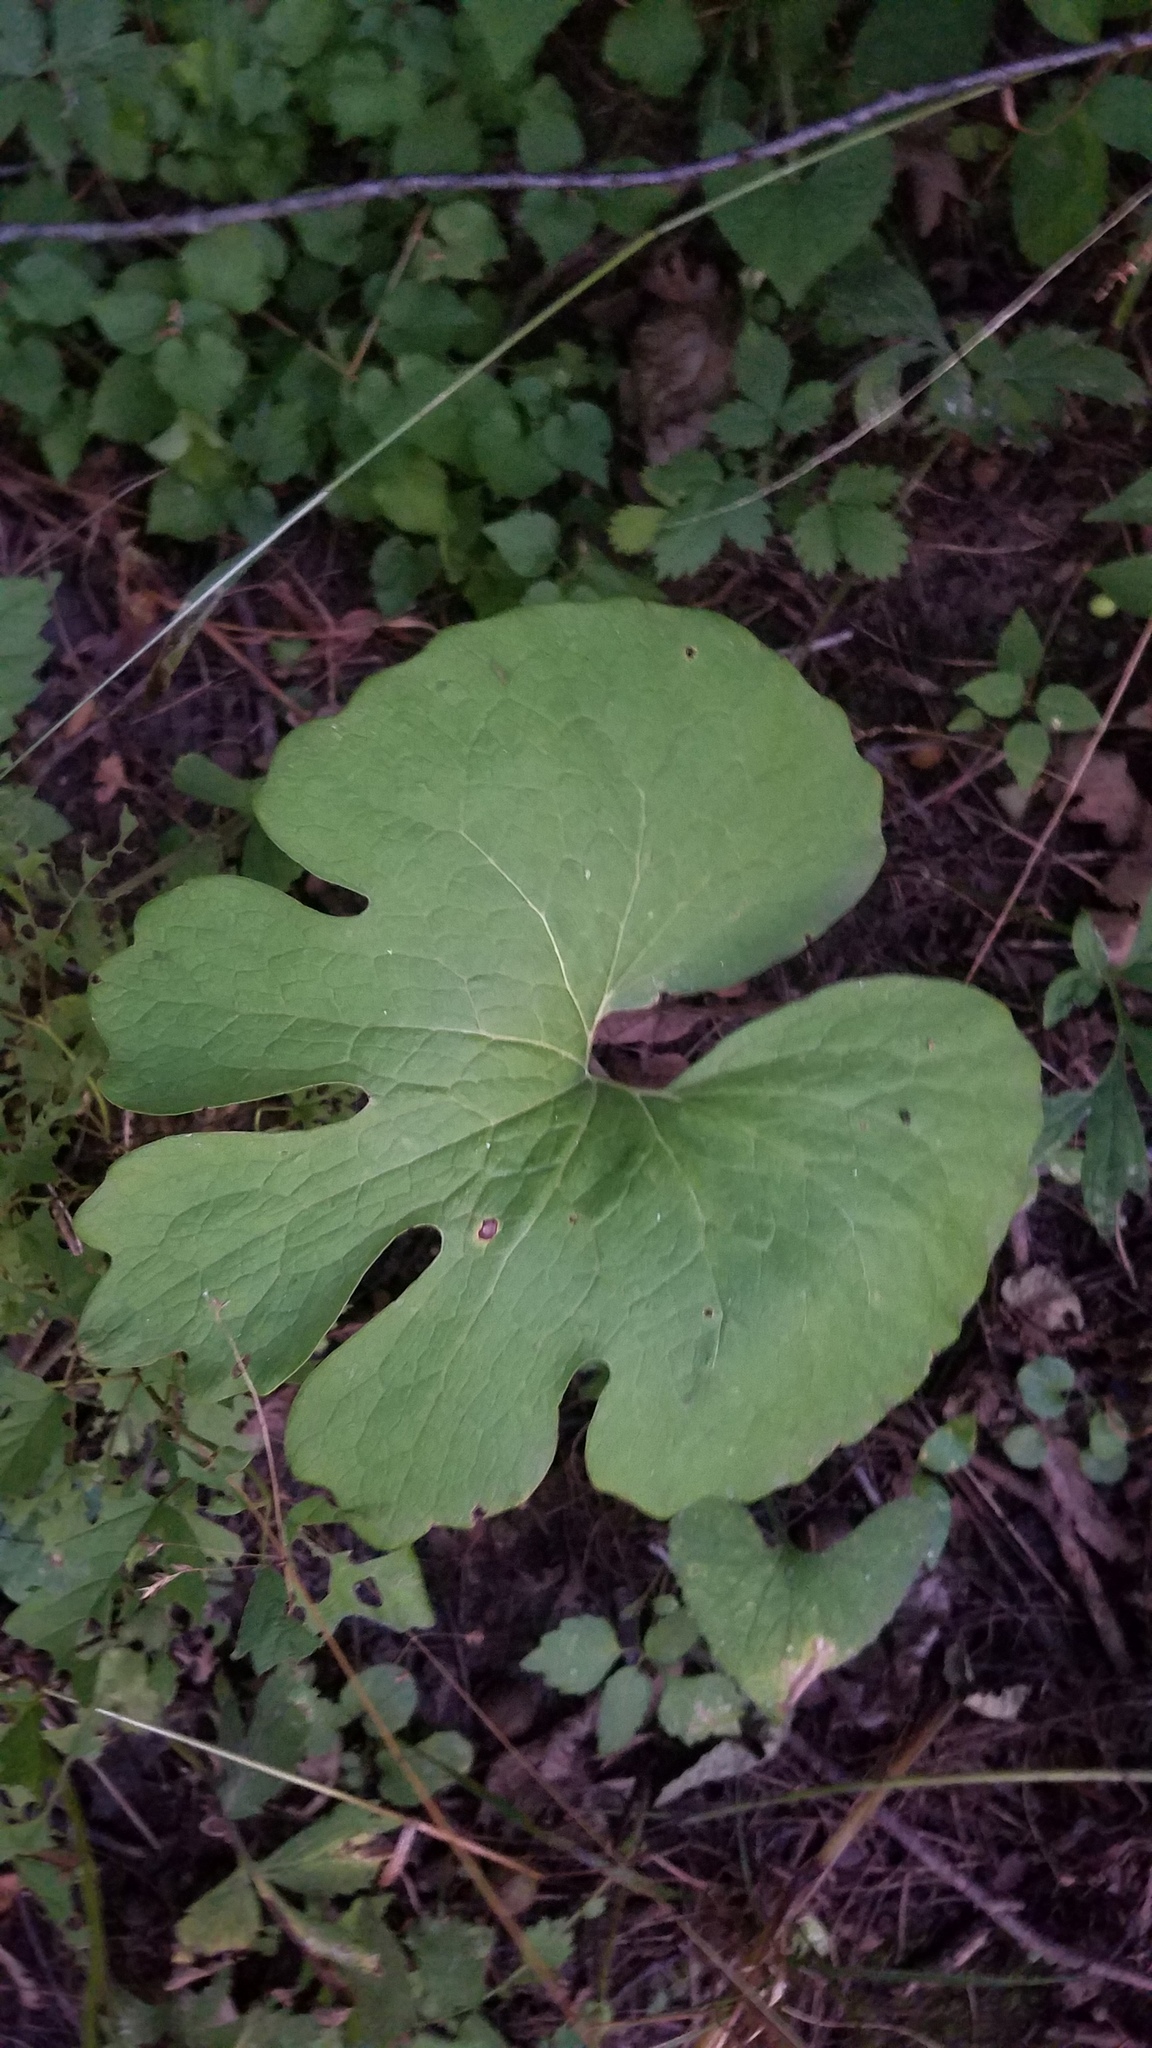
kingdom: Plantae
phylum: Tracheophyta
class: Magnoliopsida
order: Ranunculales
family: Papaveraceae
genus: Sanguinaria
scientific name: Sanguinaria canadensis
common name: Bloodroot
